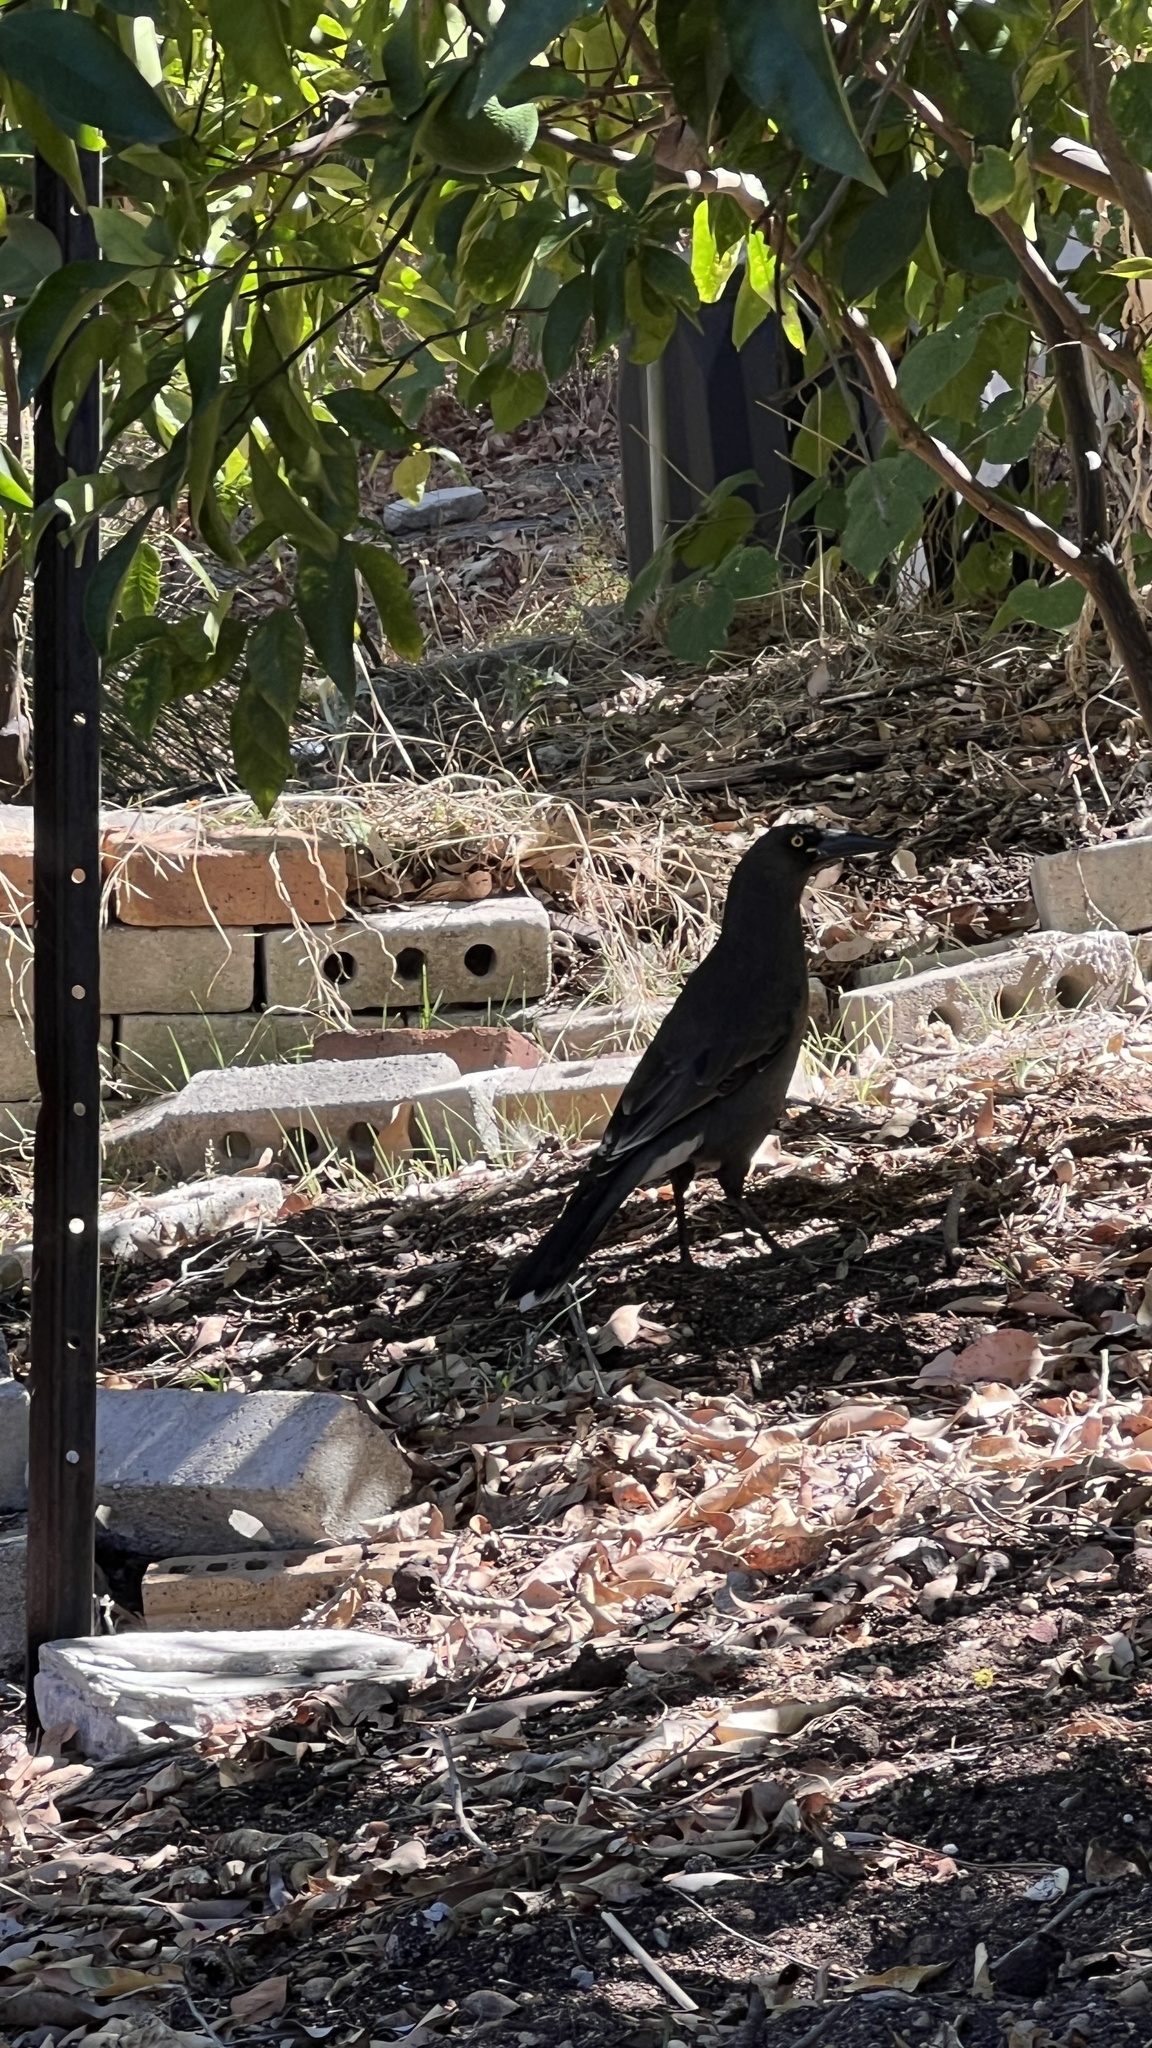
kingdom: Animalia
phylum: Chordata
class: Aves
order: Passeriformes
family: Cracticidae
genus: Strepera
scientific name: Strepera versicolor
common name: Grey currawong
